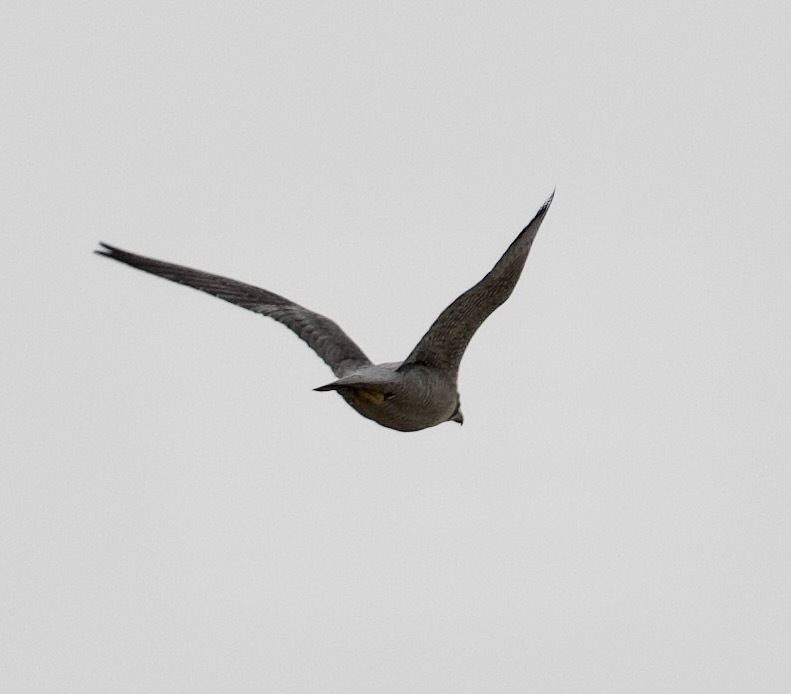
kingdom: Animalia
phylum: Chordata
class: Aves
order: Falconiformes
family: Falconidae
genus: Falco
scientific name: Falco peregrinus
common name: Peregrine falcon
